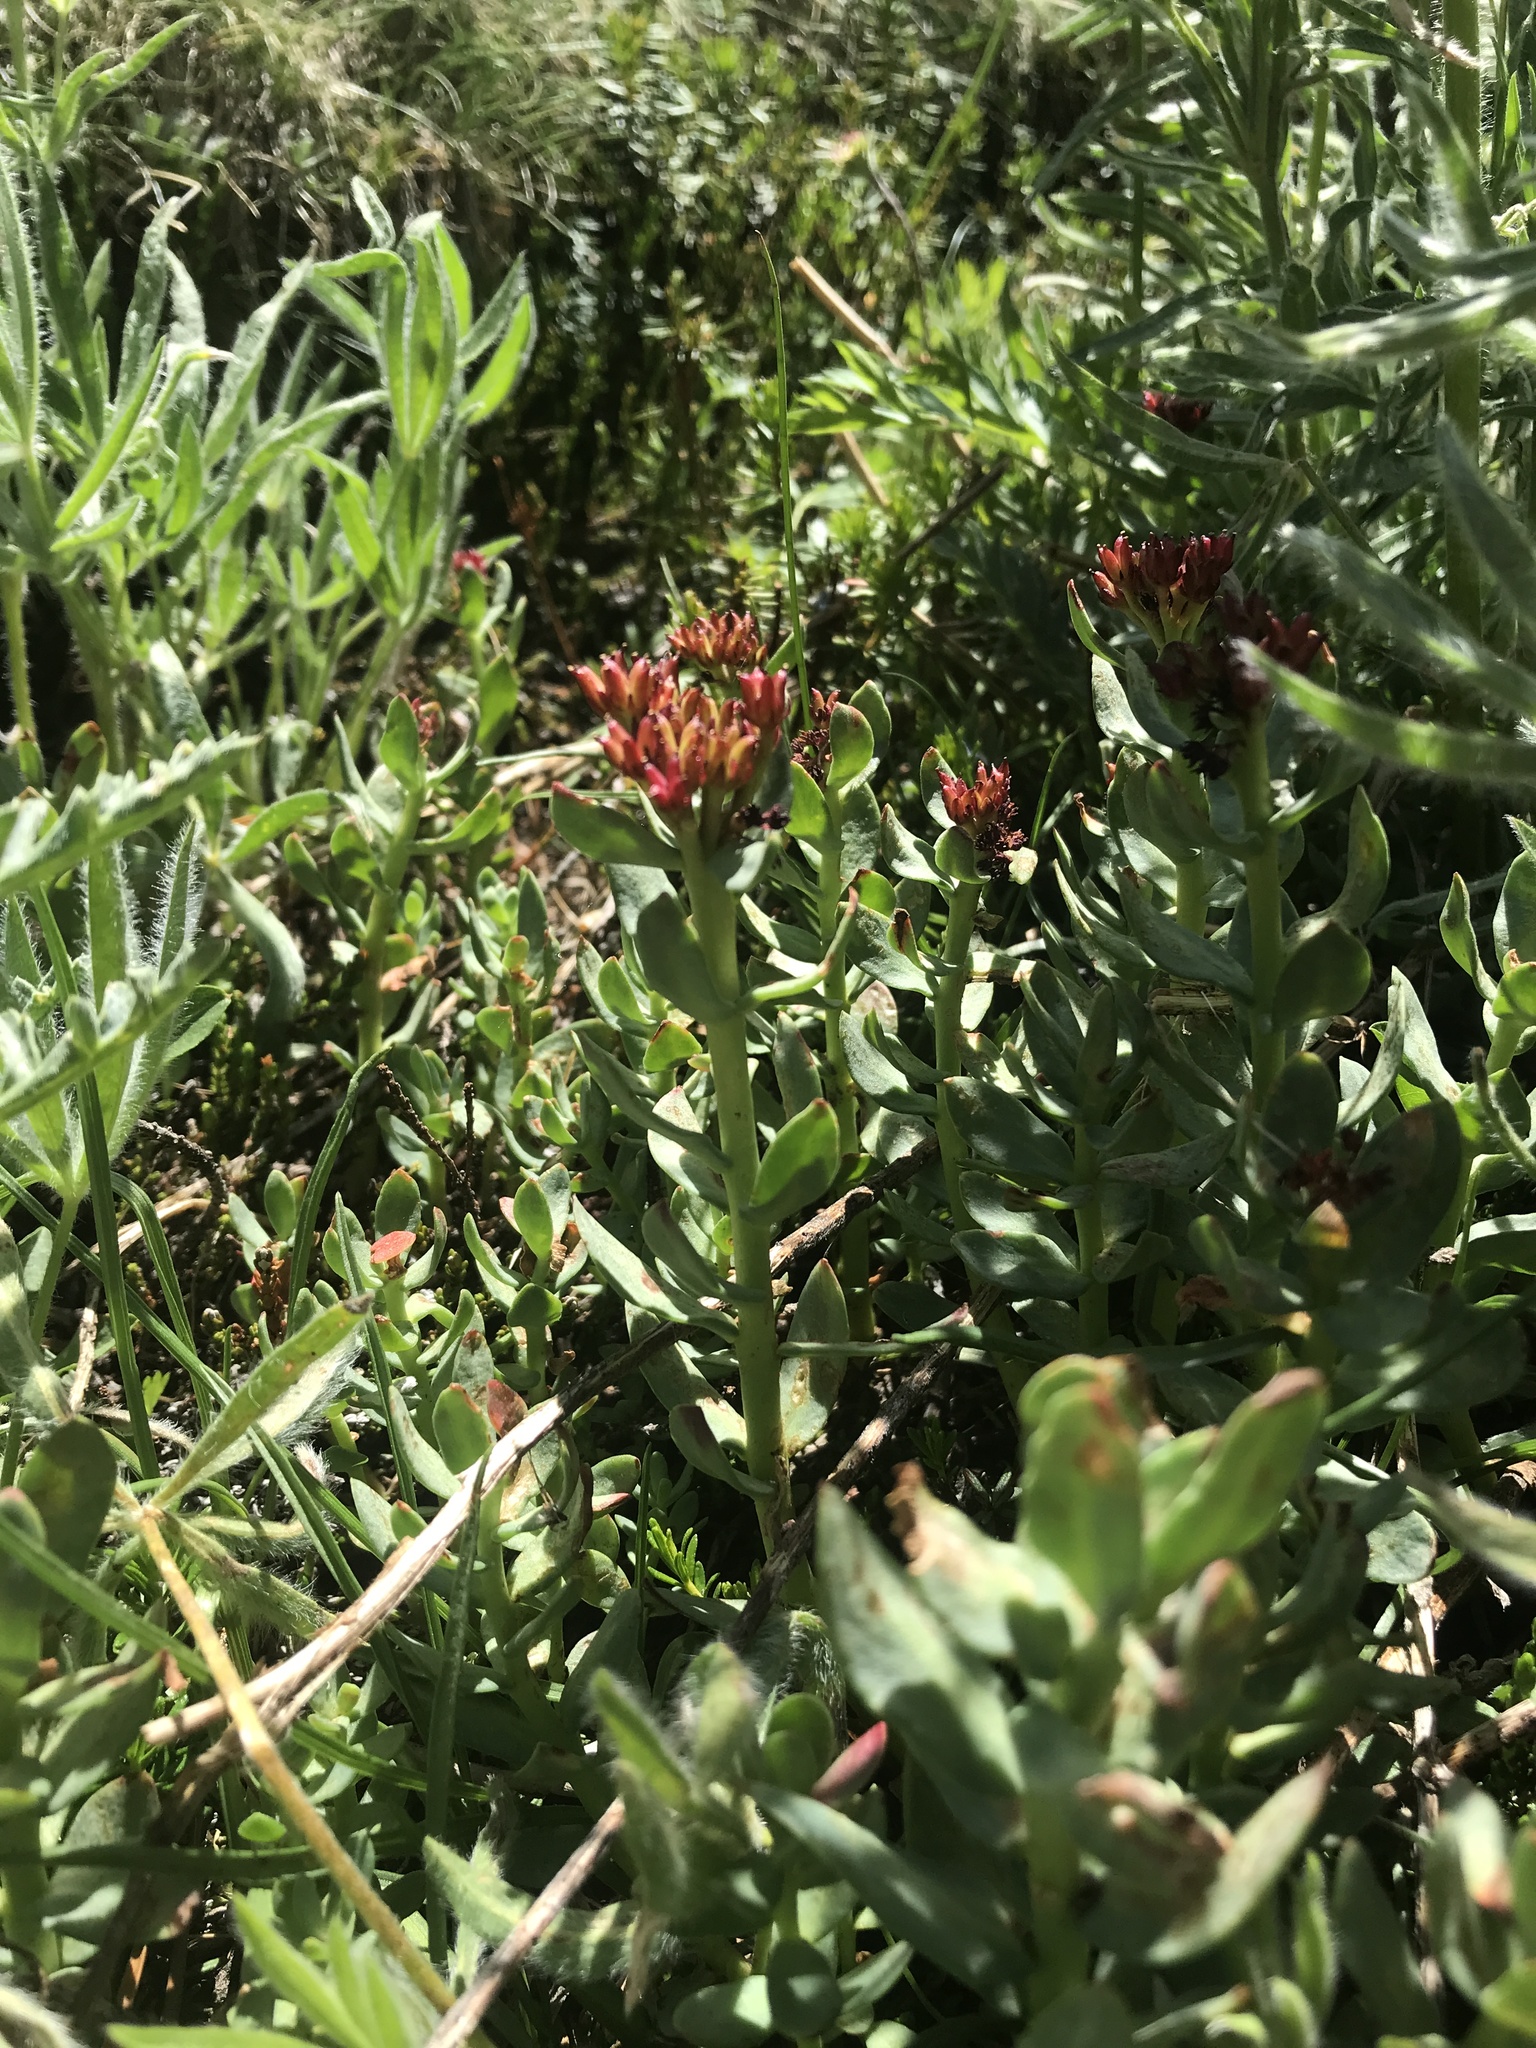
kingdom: Plantae
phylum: Tracheophyta
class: Magnoliopsida
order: Saxifragales
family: Crassulaceae
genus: Rhodiola
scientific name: Rhodiola integrifolia
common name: Western roseroot
